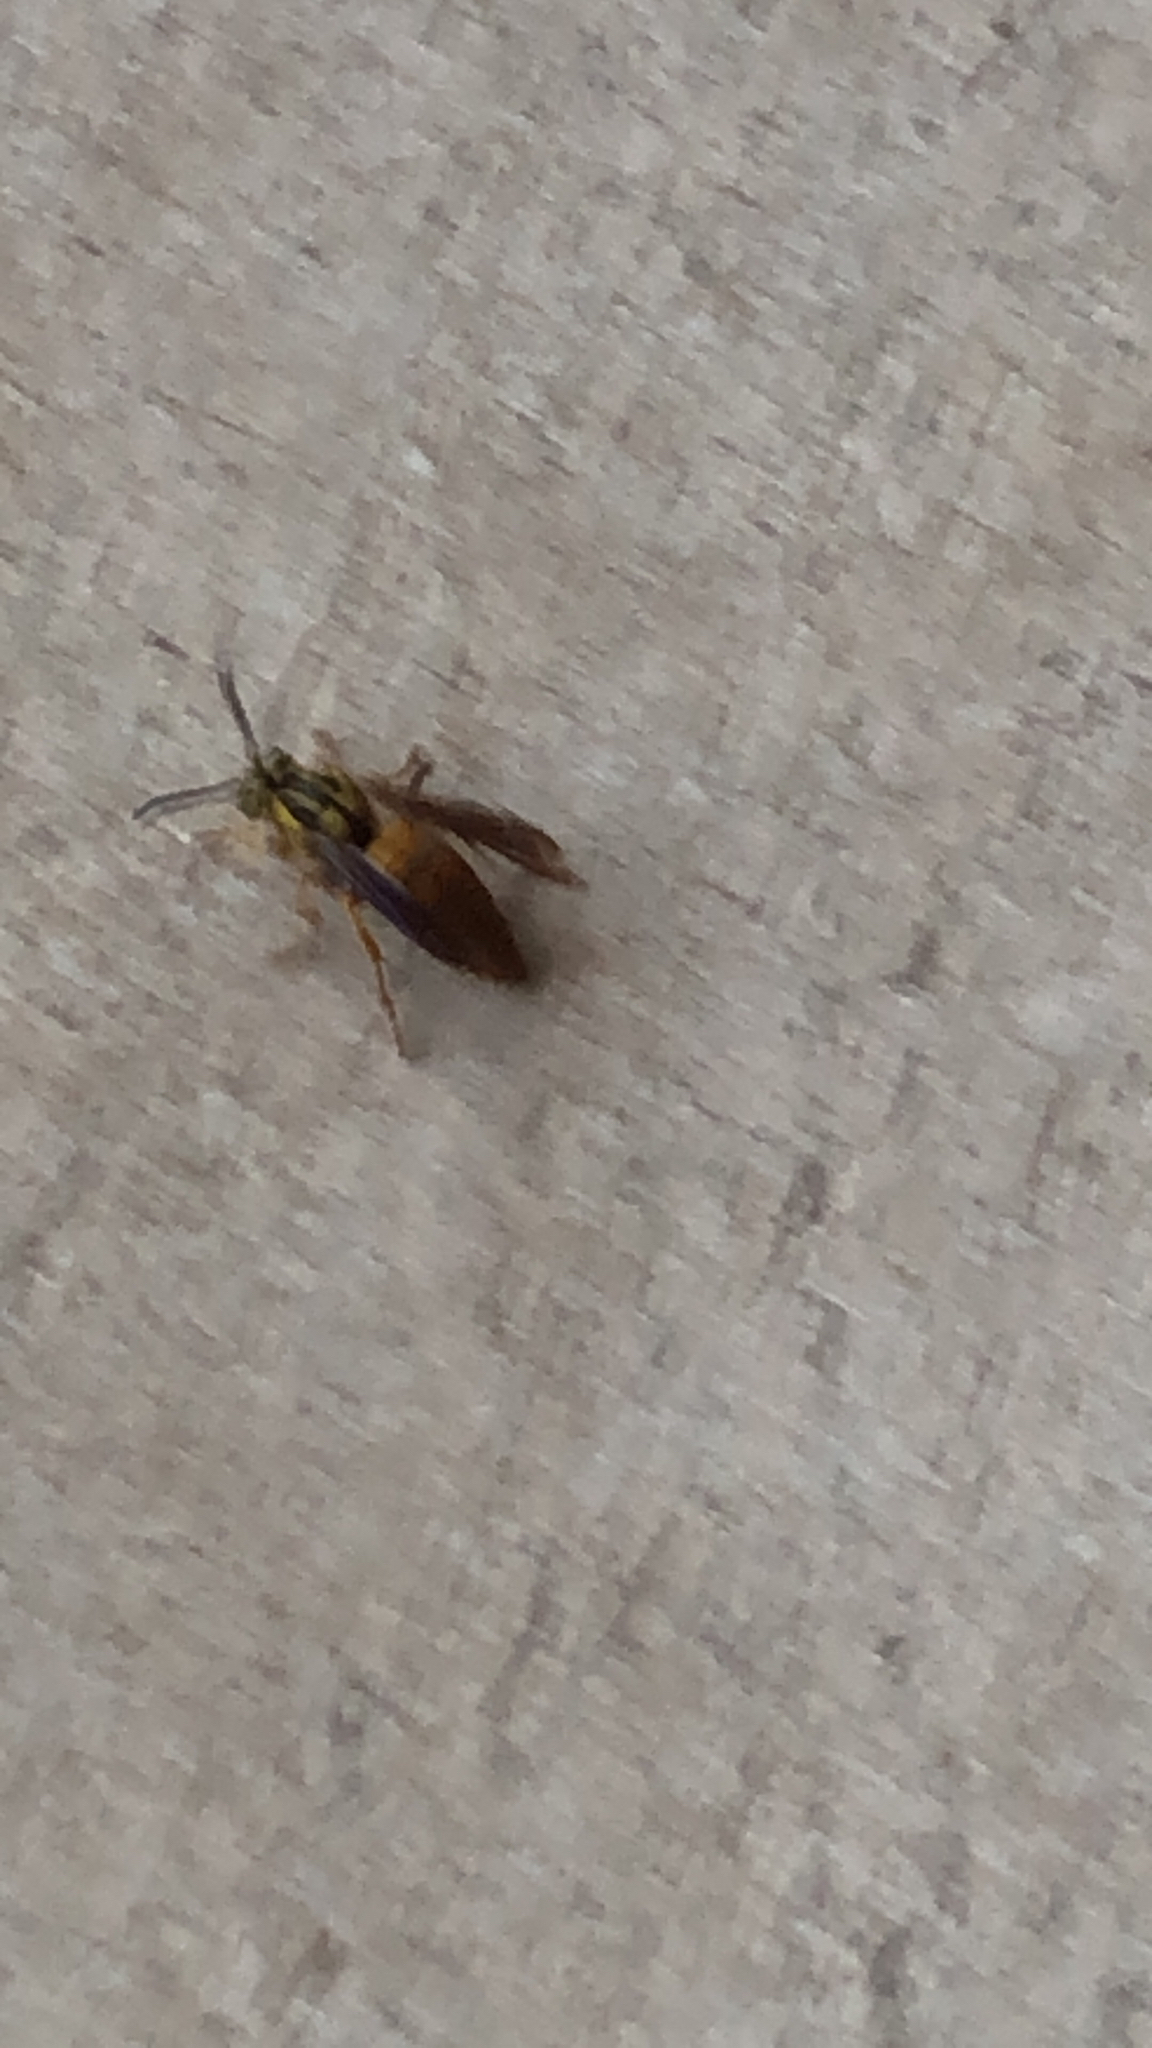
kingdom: Animalia
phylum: Arthropoda
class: Insecta
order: Hymenoptera
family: Vespidae
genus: Vespula
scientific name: Vespula squamosa
